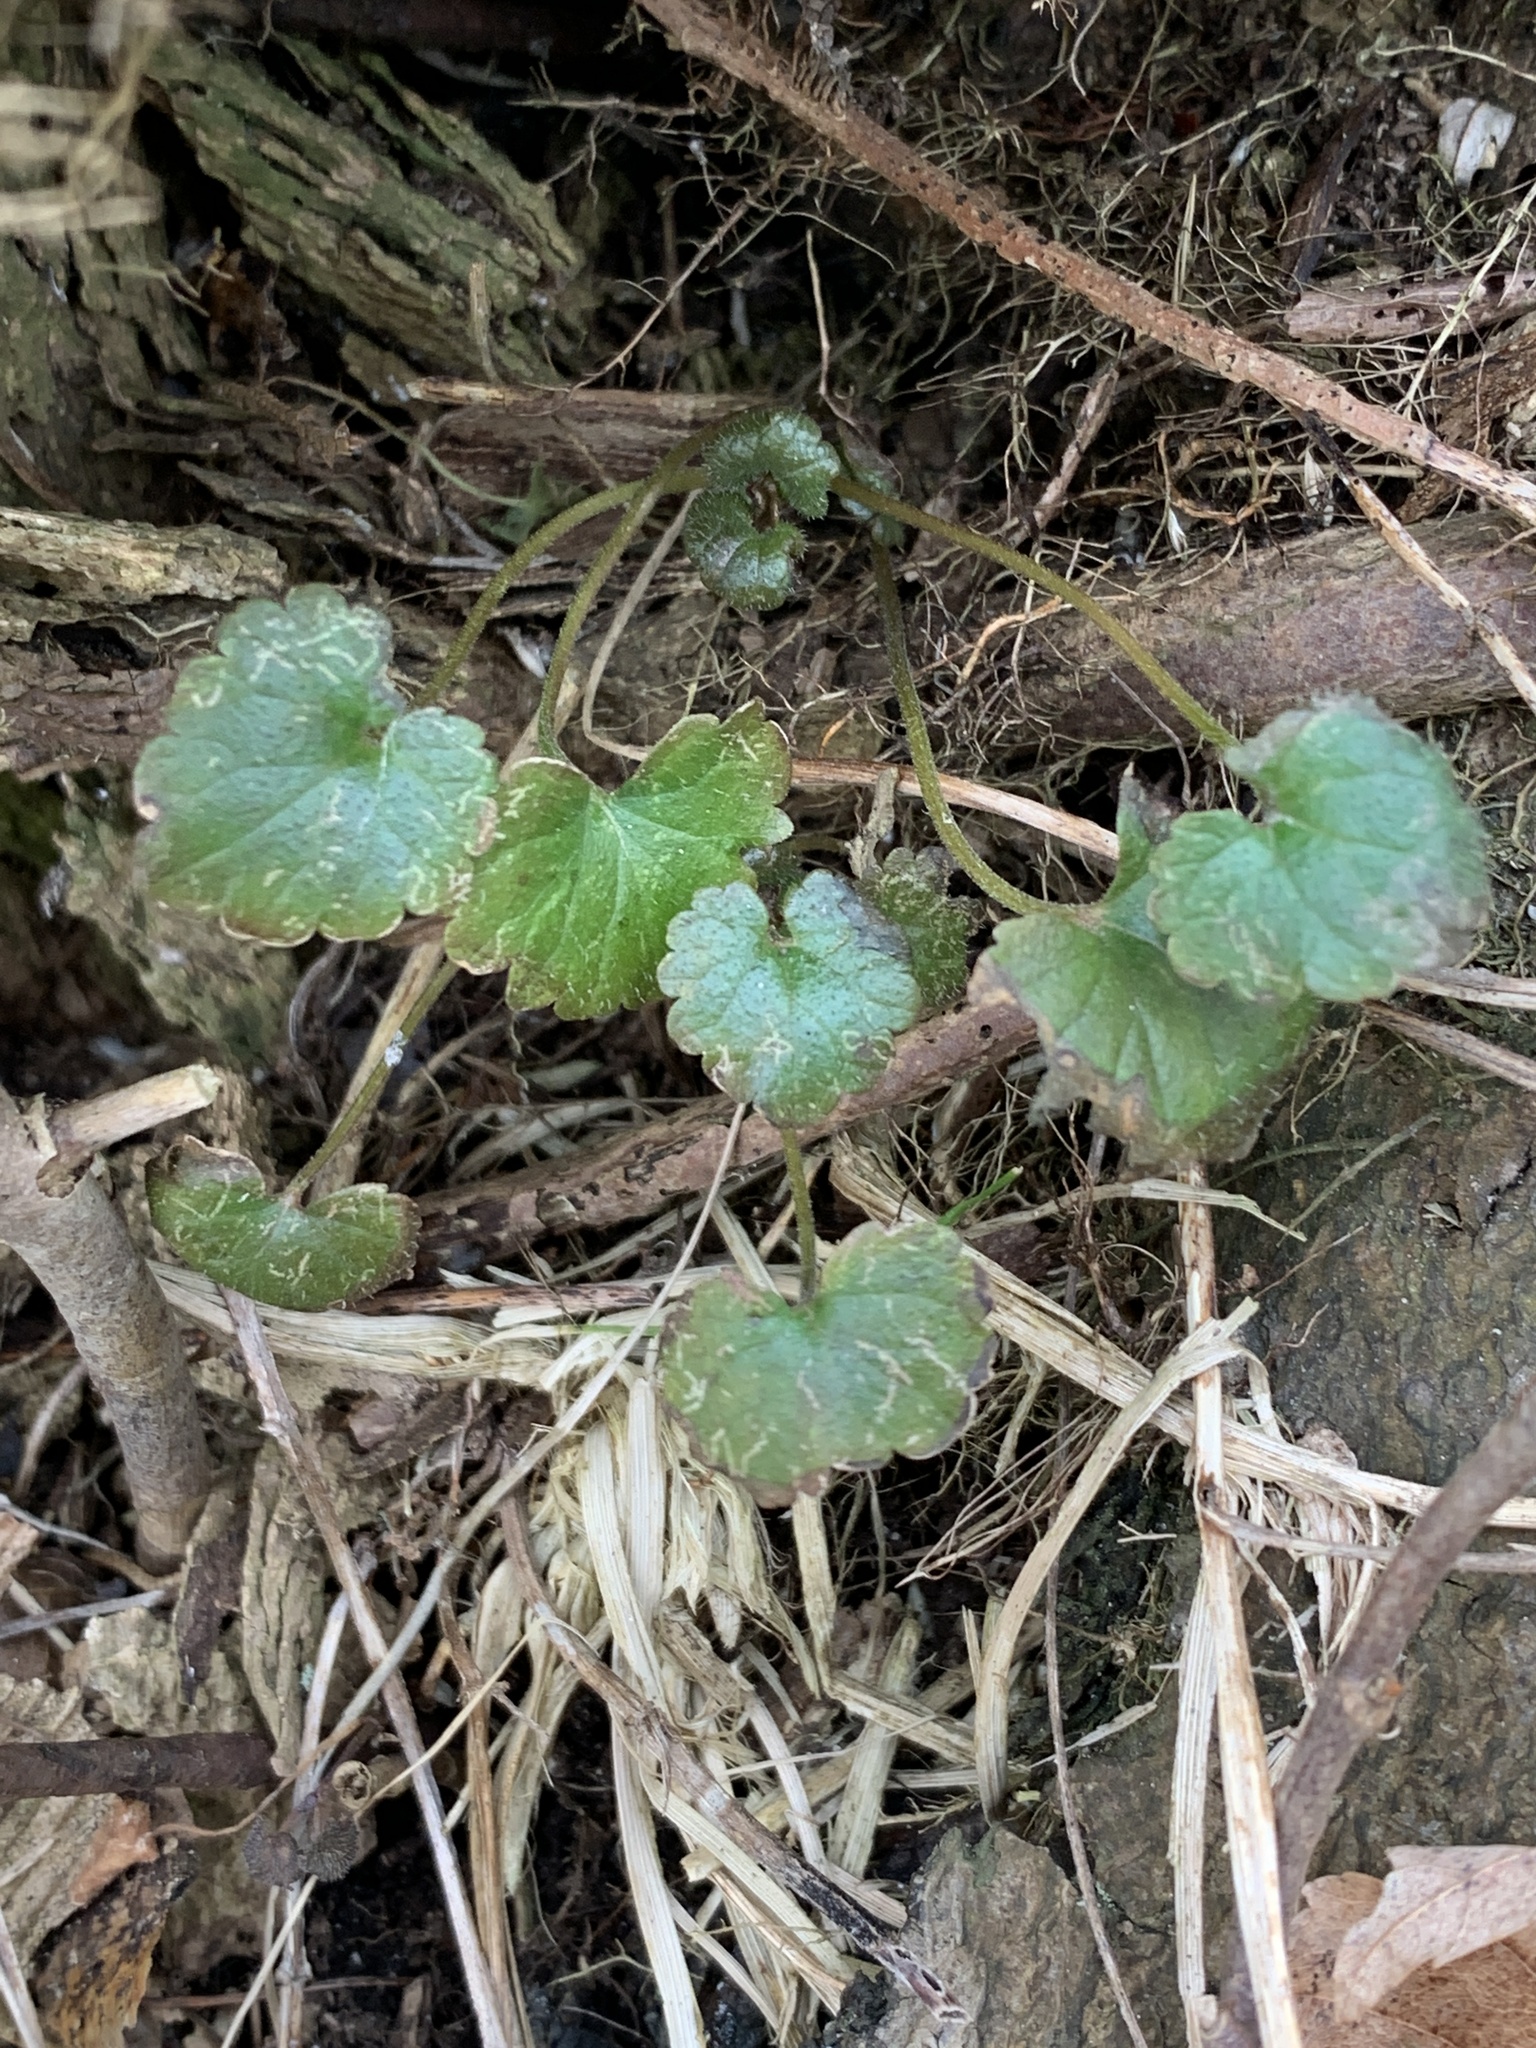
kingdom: Plantae
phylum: Tracheophyta
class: Magnoliopsida
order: Lamiales
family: Lamiaceae
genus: Glechoma
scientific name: Glechoma hederacea
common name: Ground ivy
